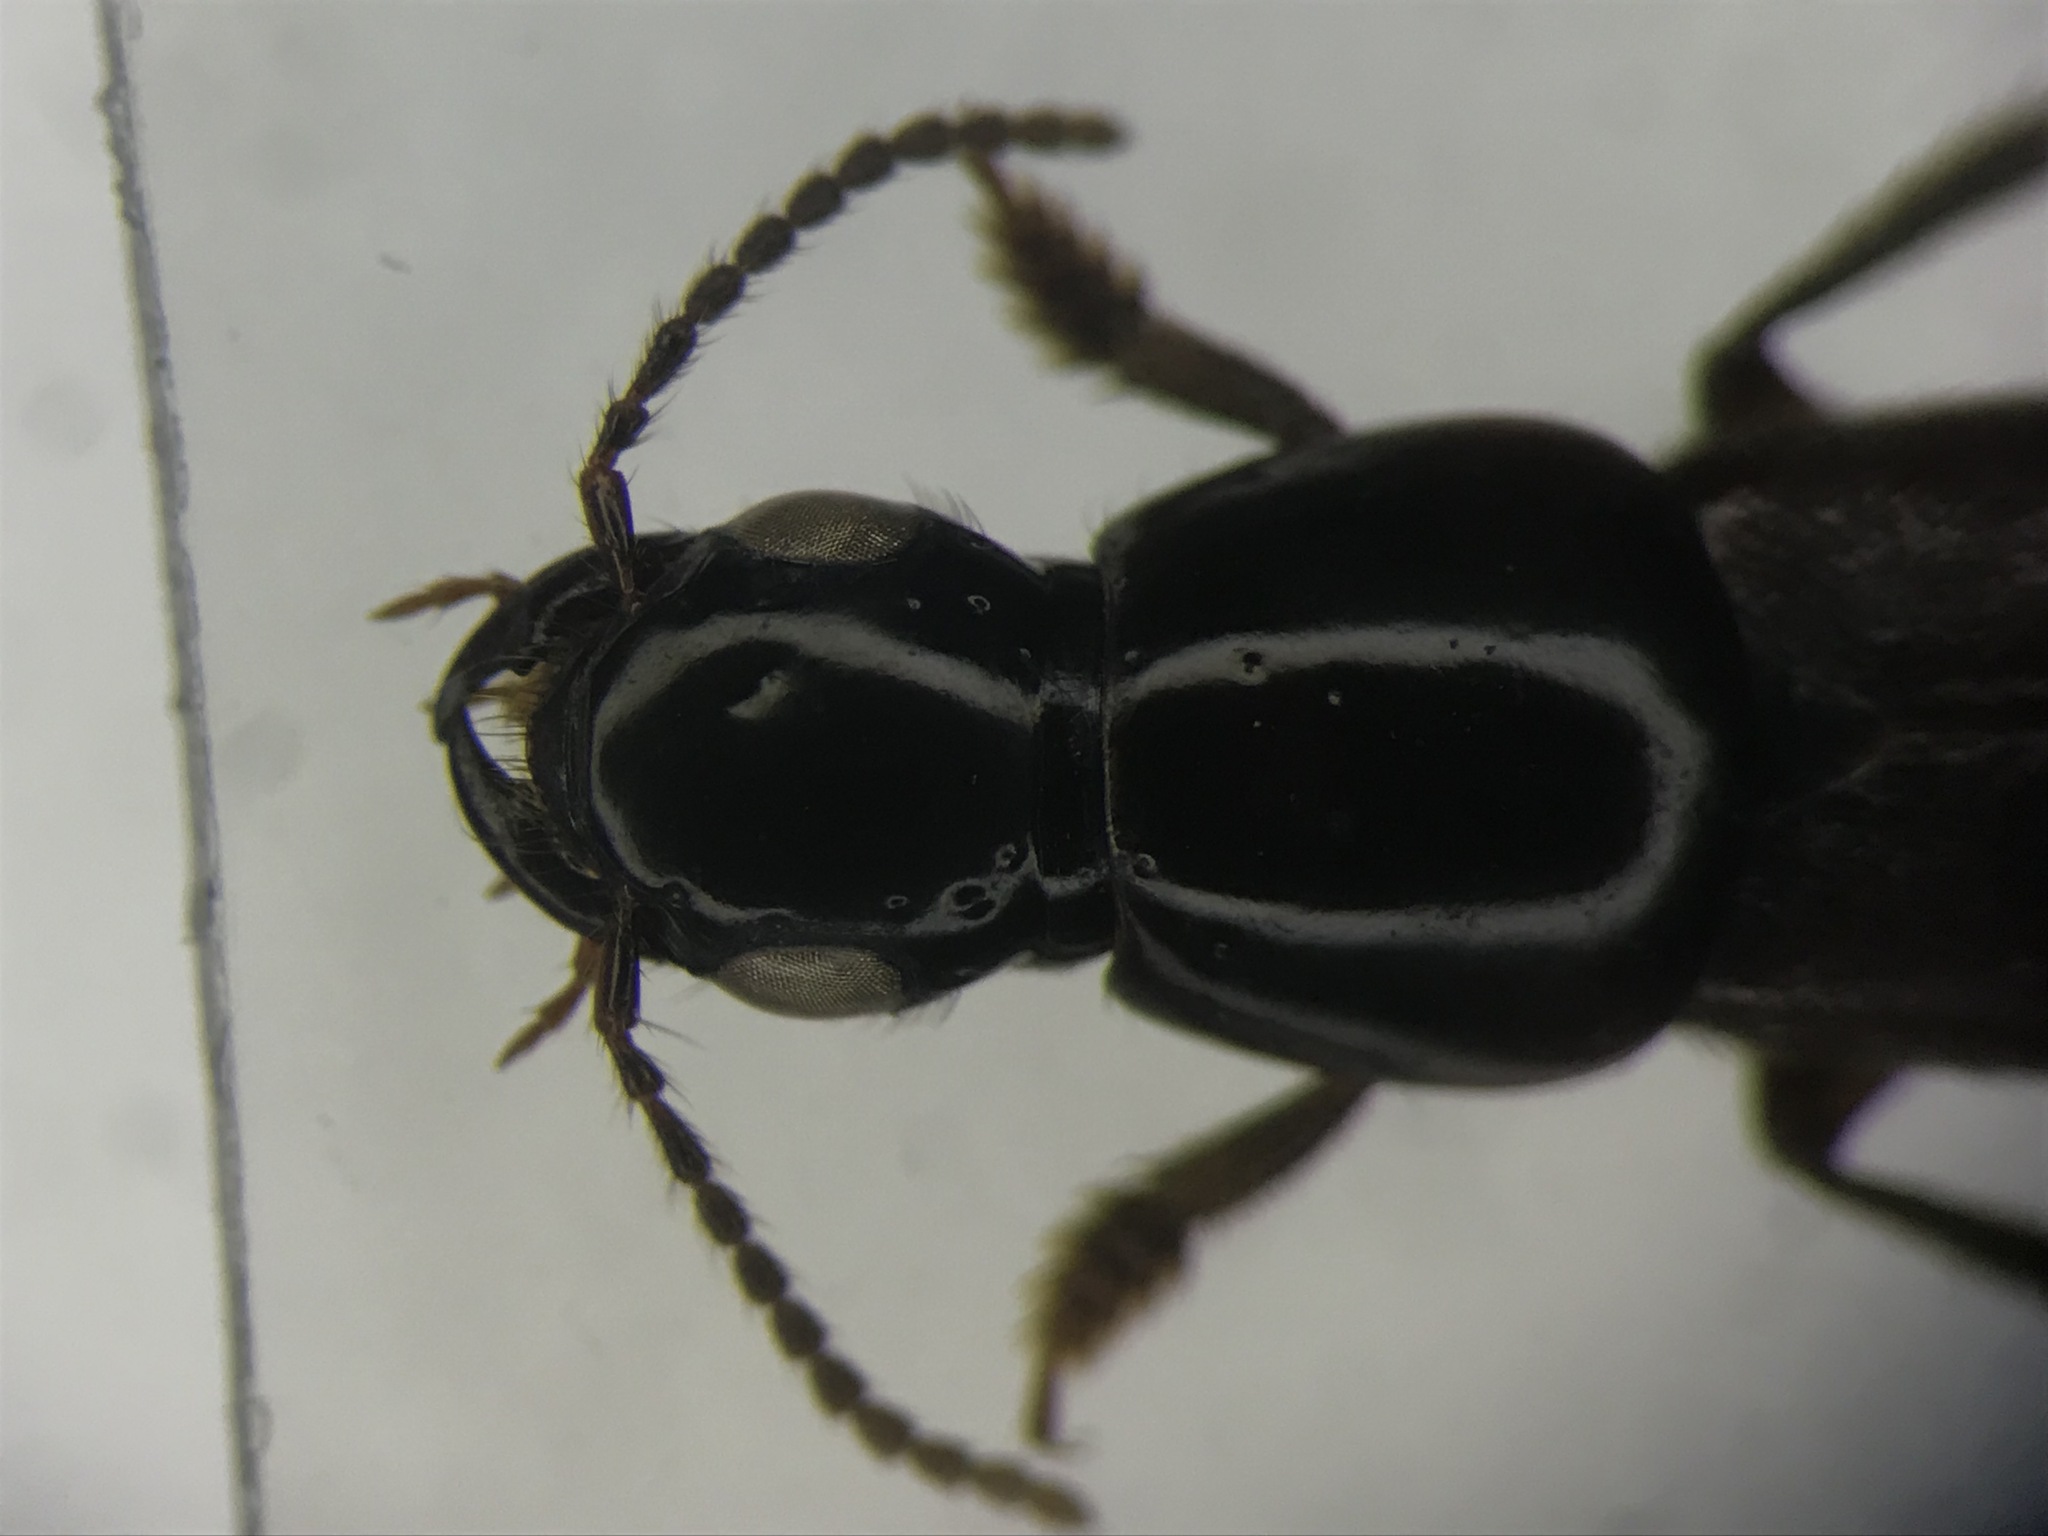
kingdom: Animalia
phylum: Arthropoda
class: Insecta
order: Coleoptera
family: Staphylinidae
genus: Quedius
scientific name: Quedius molochinoides
